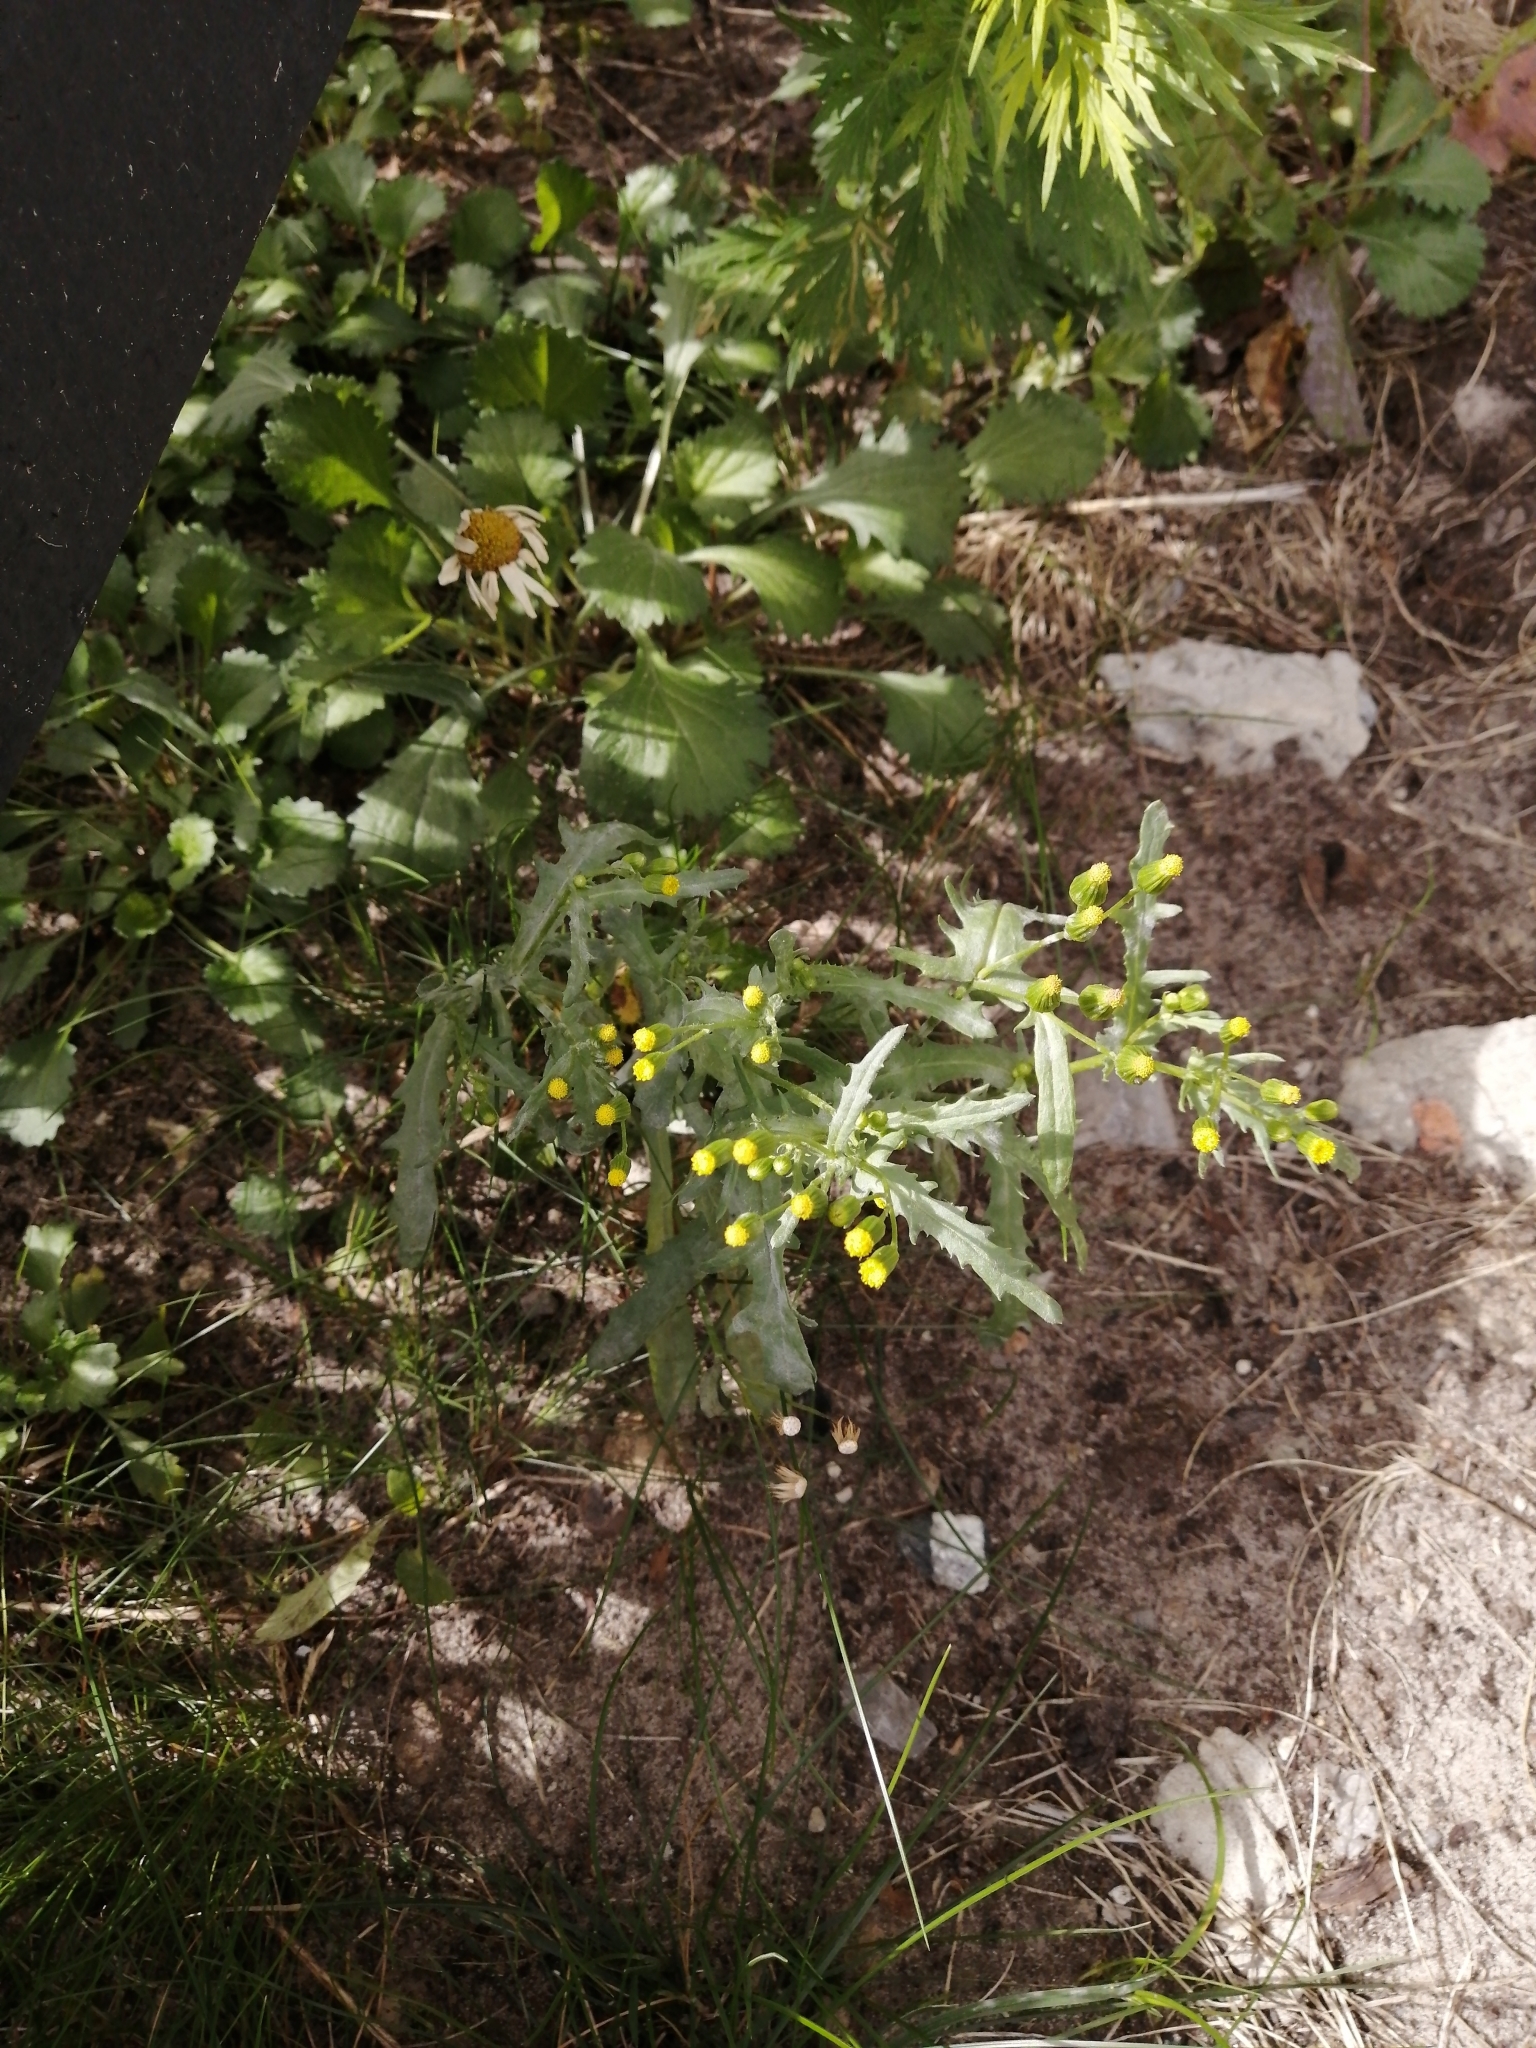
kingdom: Plantae
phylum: Tracheophyta
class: Magnoliopsida
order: Asterales
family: Asteraceae
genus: Senecio
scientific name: Senecio vulgaris
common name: Old-man-in-the-spring
